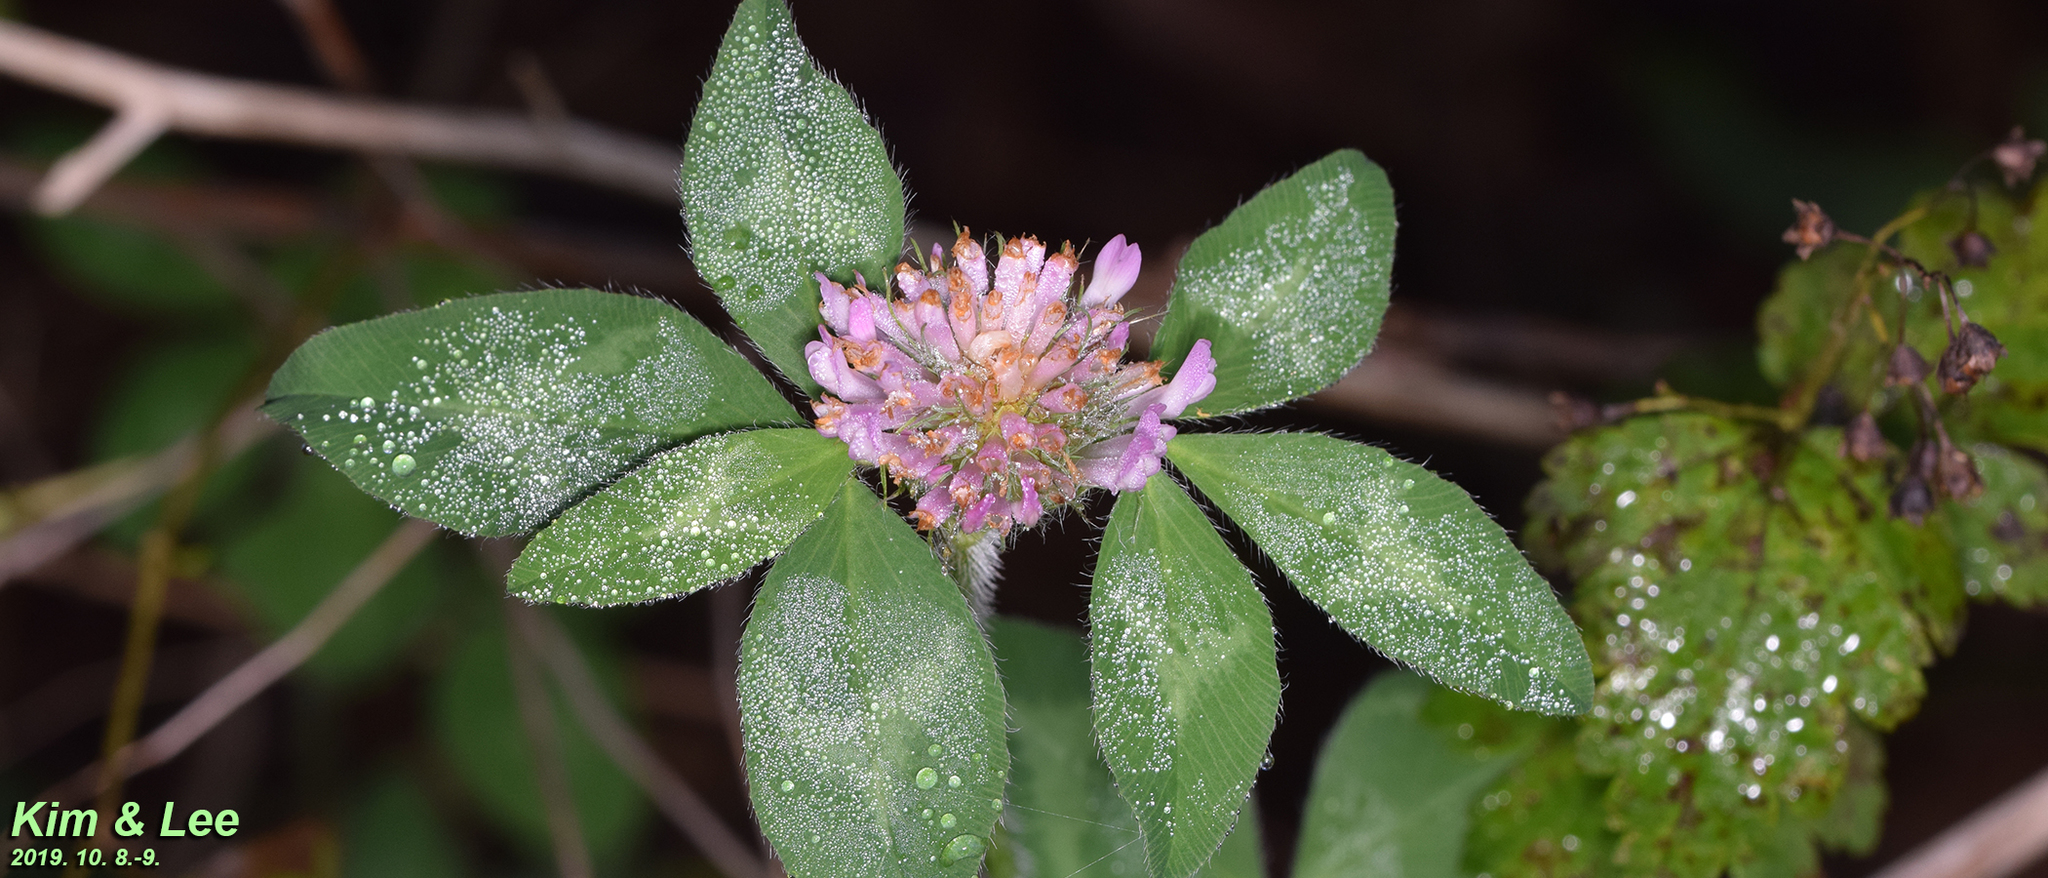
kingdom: Plantae
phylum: Tracheophyta
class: Magnoliopsida
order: Fabales
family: Fabaceae
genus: Trifolium
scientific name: Trifolium pratense
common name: Red clover
